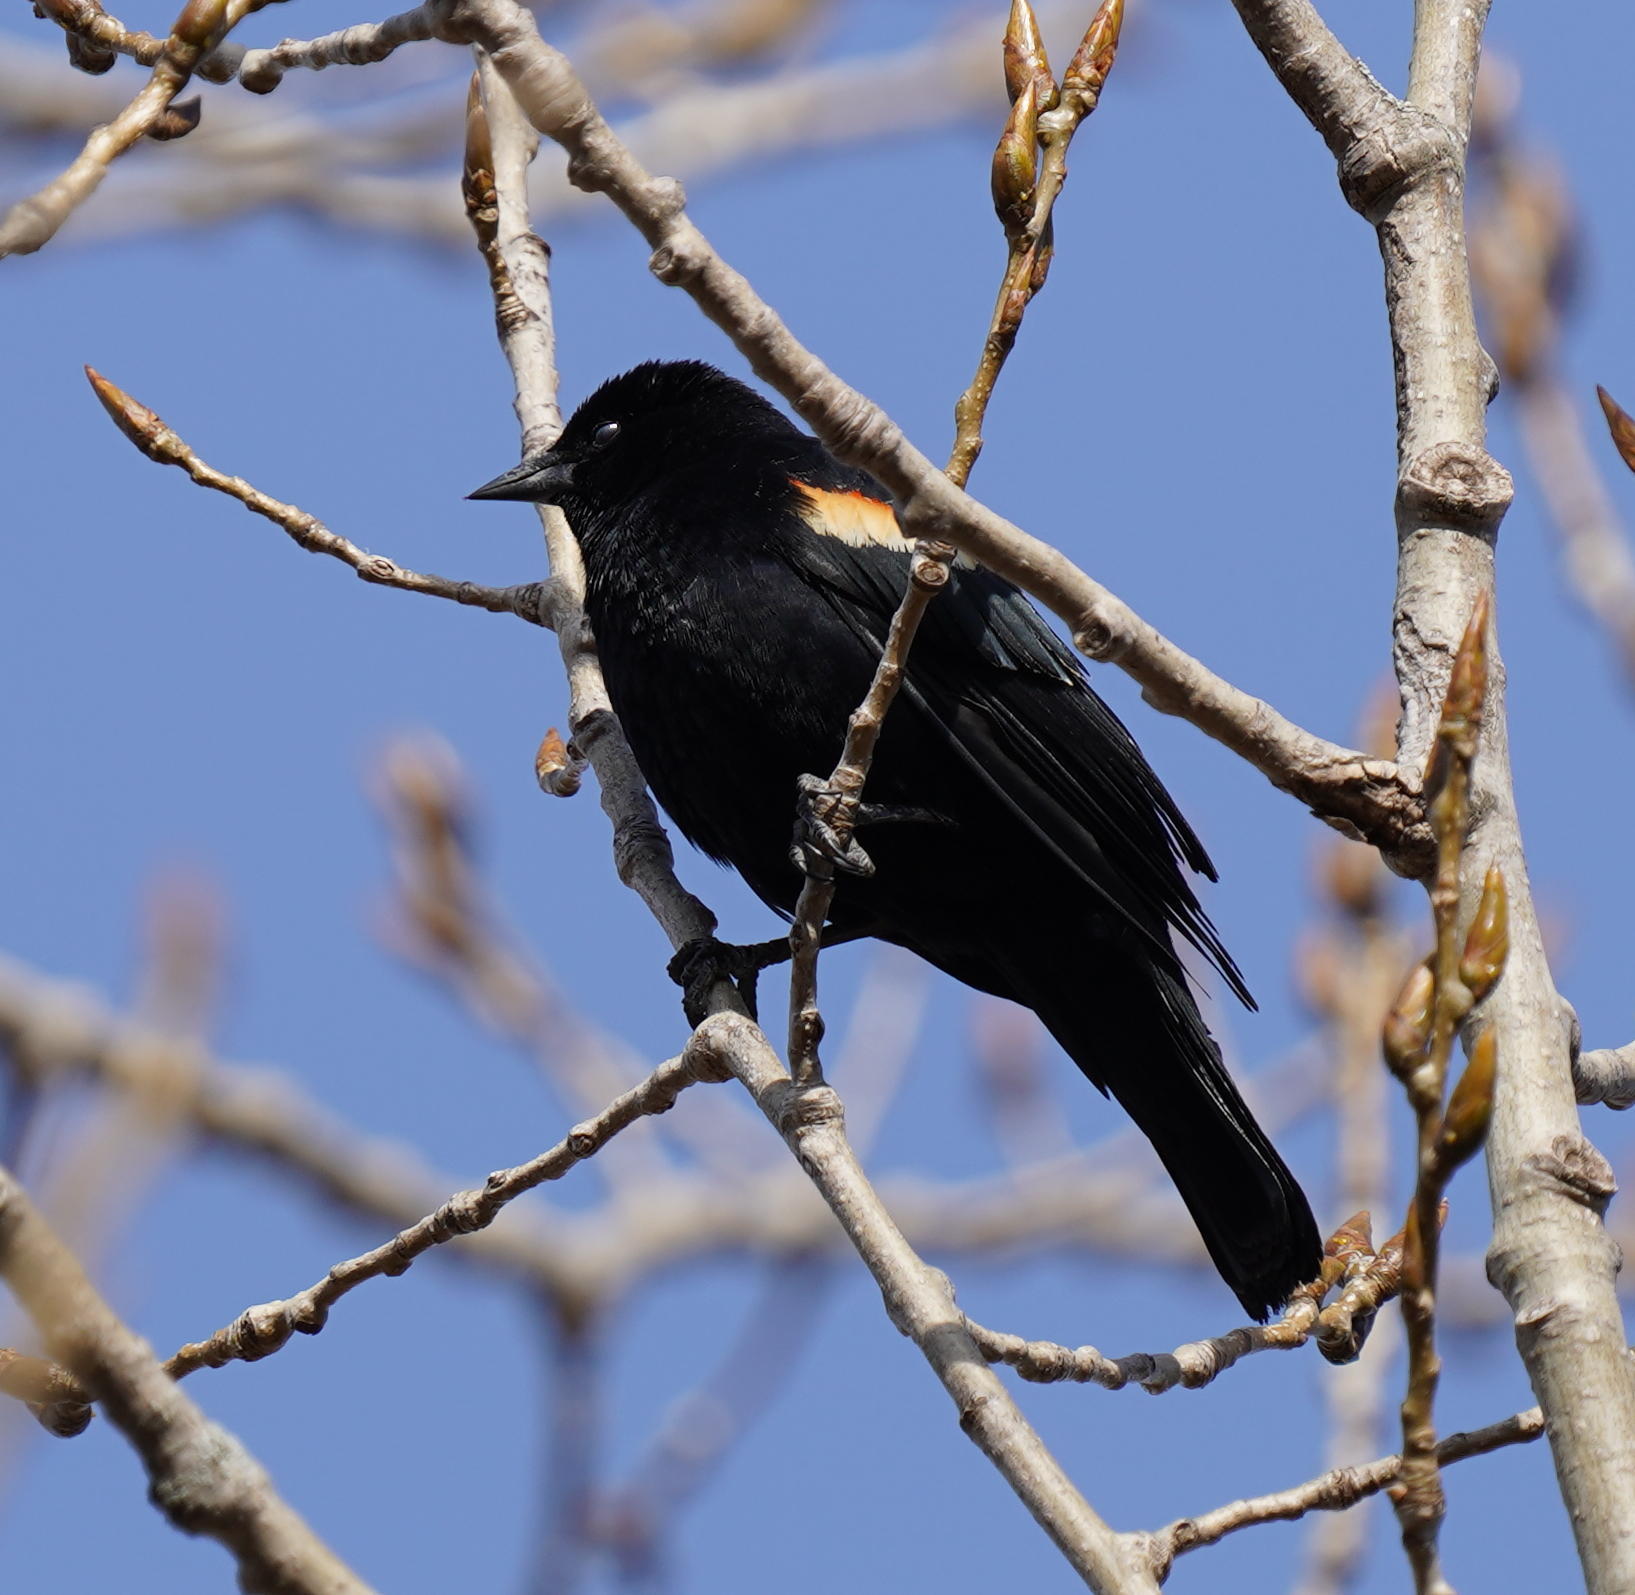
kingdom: Animalia
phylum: Chordata
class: Aves
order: Passeriformes
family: Icteridae
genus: Agelaius
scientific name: Agelaius phoeniceus
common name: Red-winged blackbird
